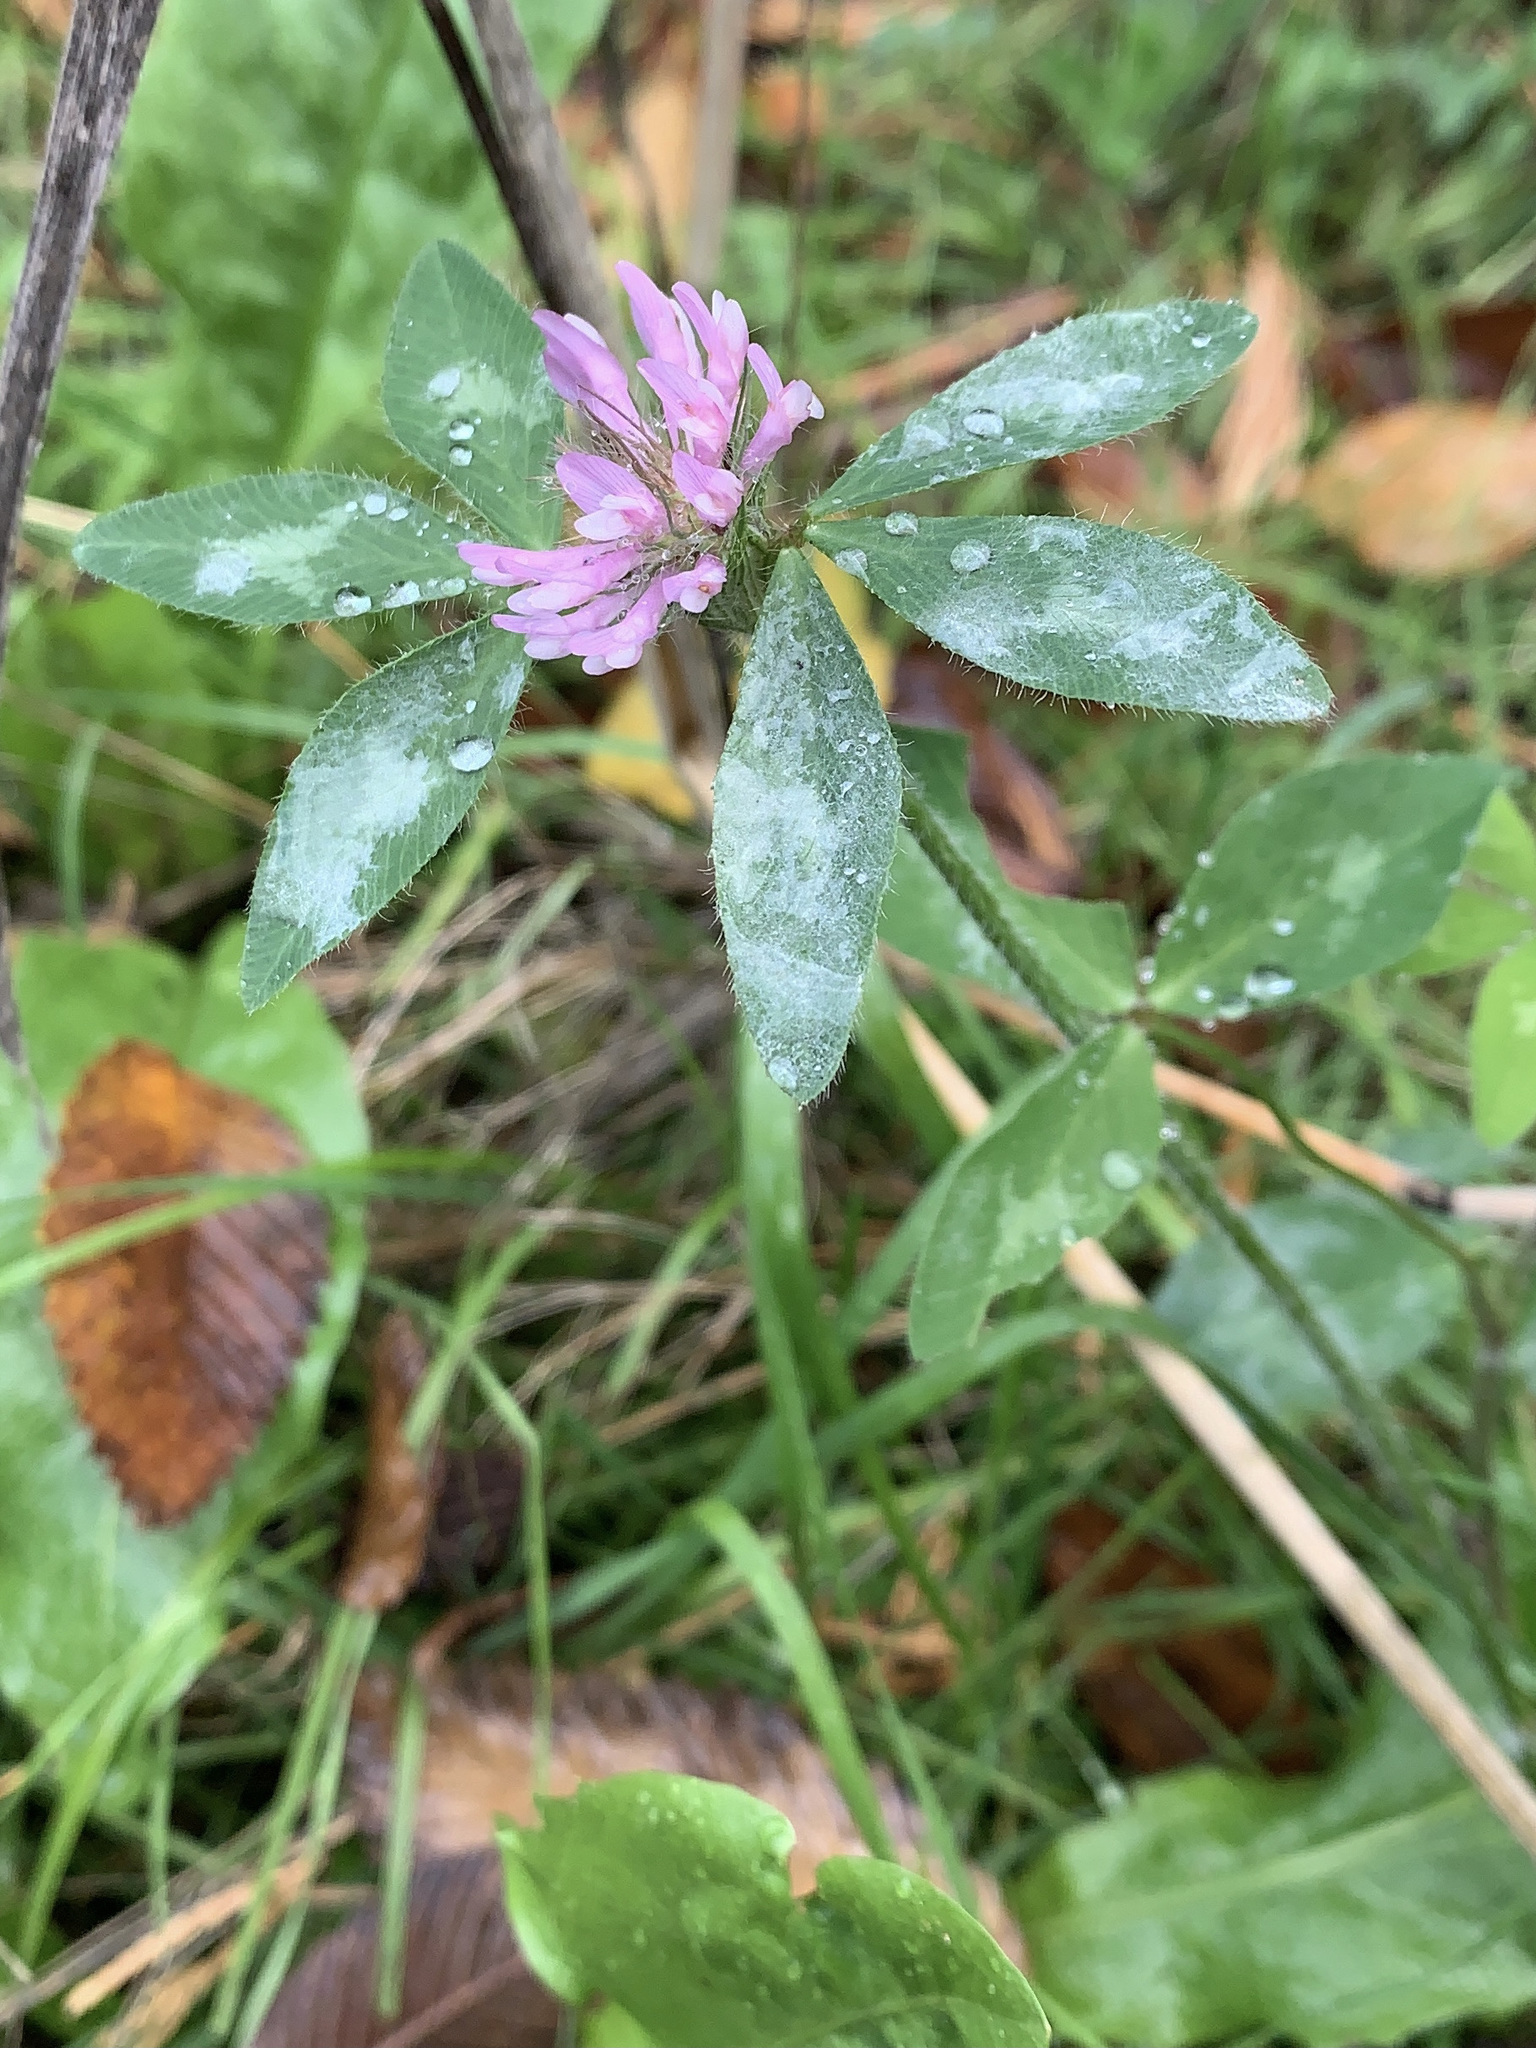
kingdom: Plantae
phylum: Tracheophyta
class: Magnoliopsida
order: Fabales
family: Fabaceae
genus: Trifolium
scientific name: Trifolium pratense
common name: Red clover
